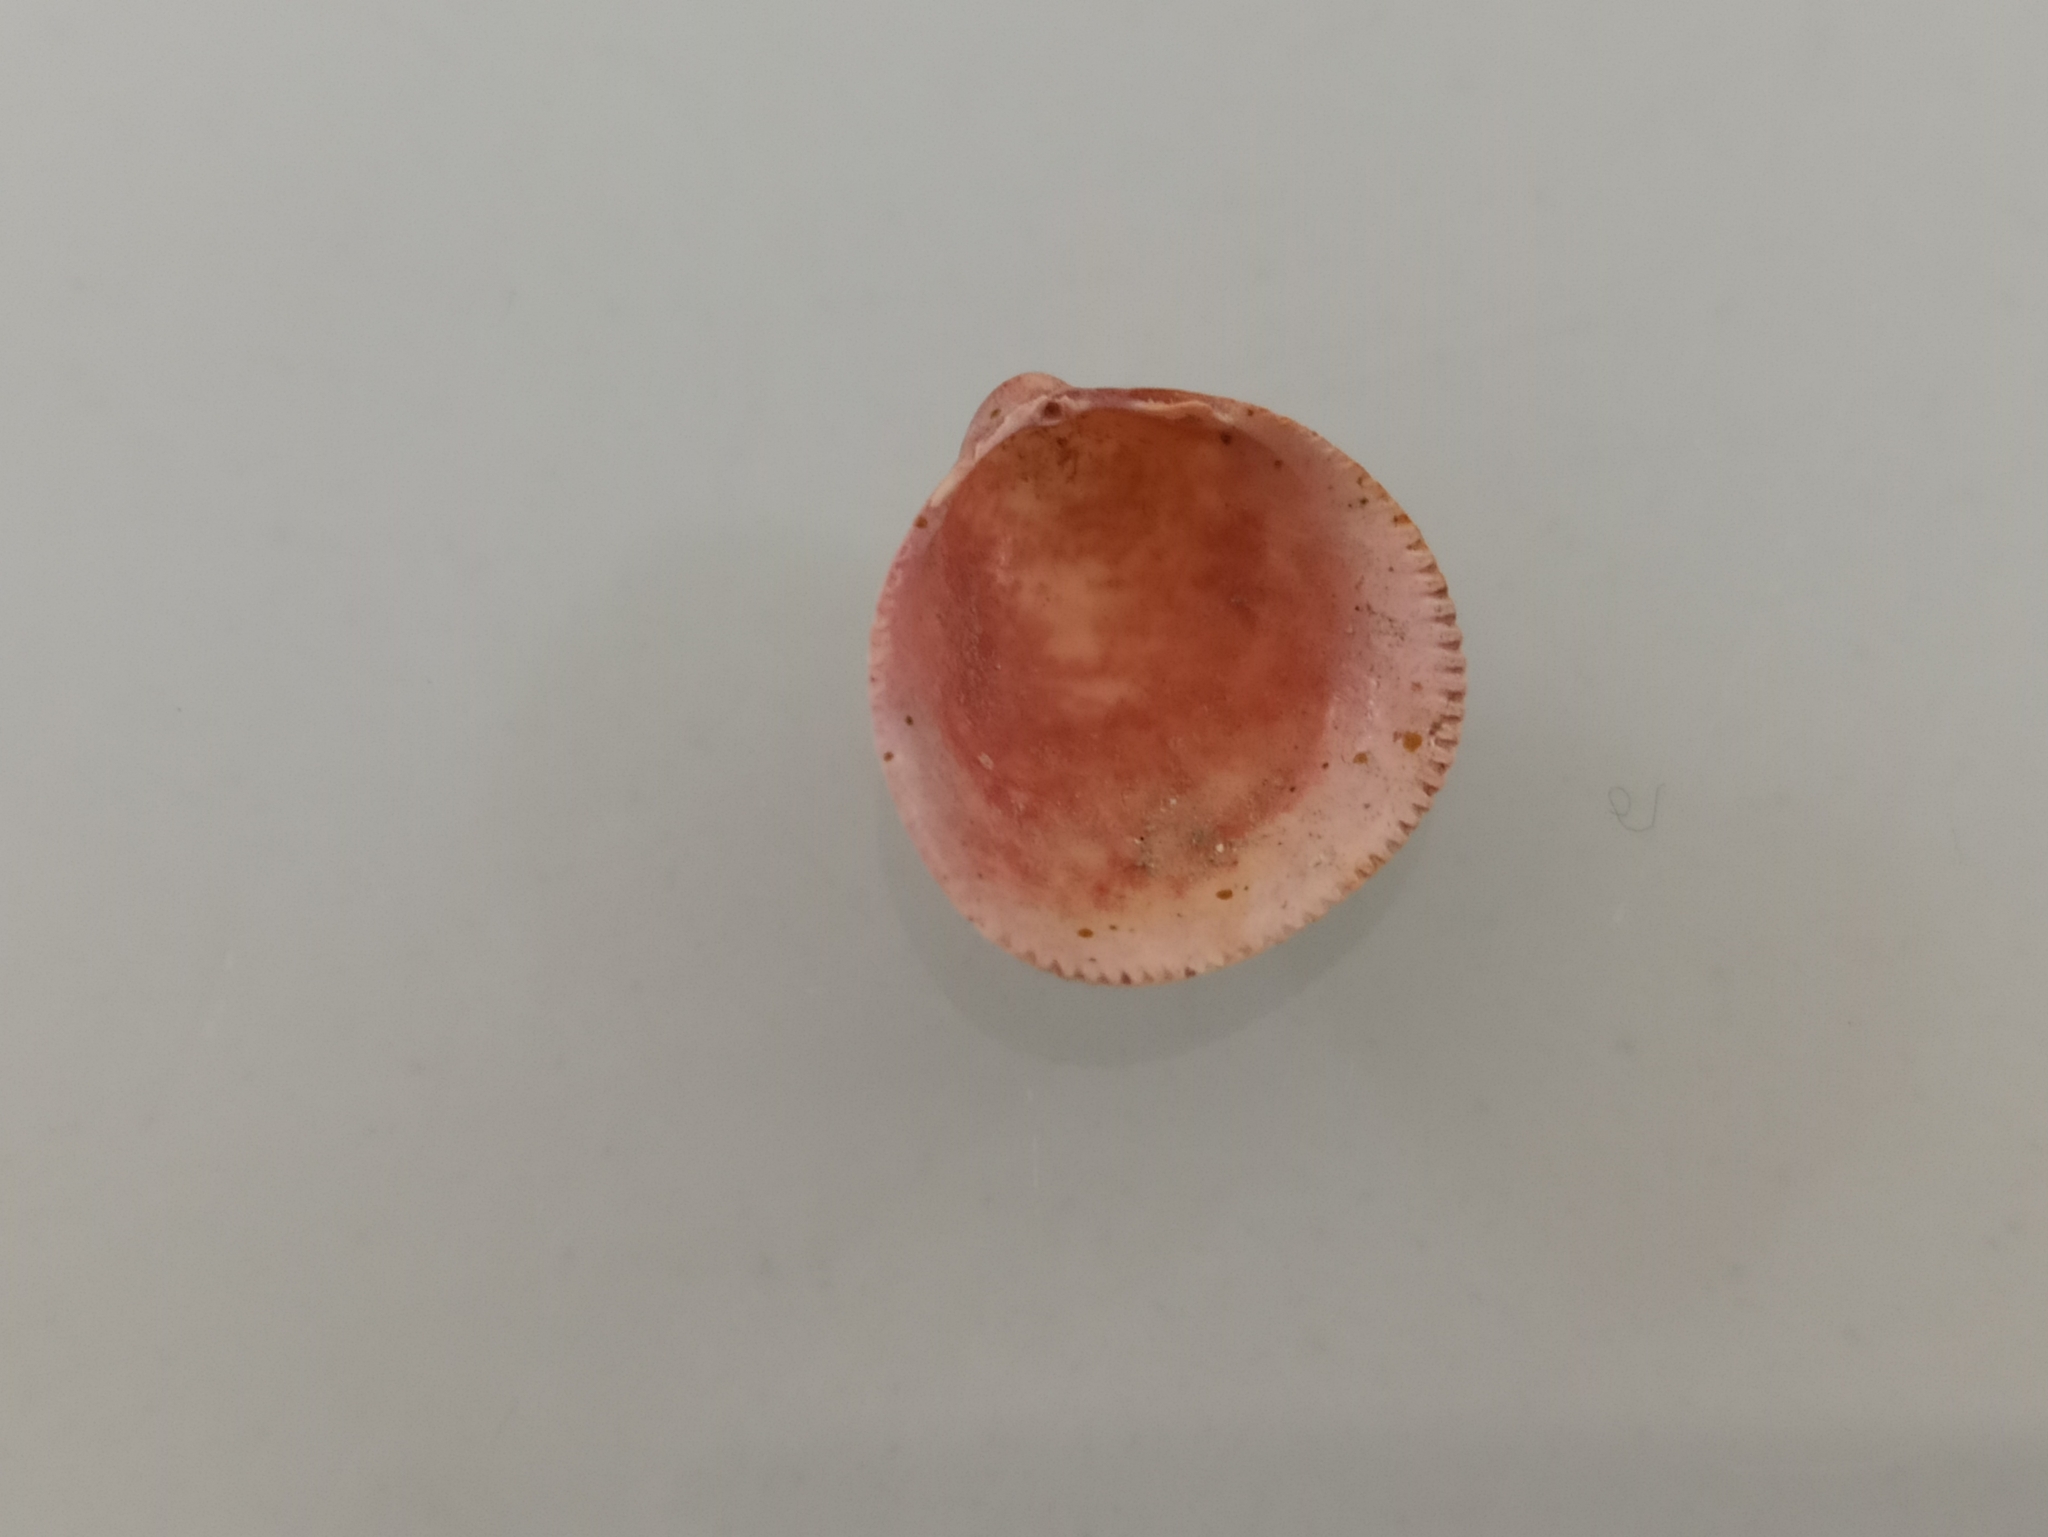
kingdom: Animalia
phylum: Mollusca
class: Bivalvia
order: Cardiida
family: Cardiidae
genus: Laevicardium
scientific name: Laevicardium crassum
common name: Norway cockle
